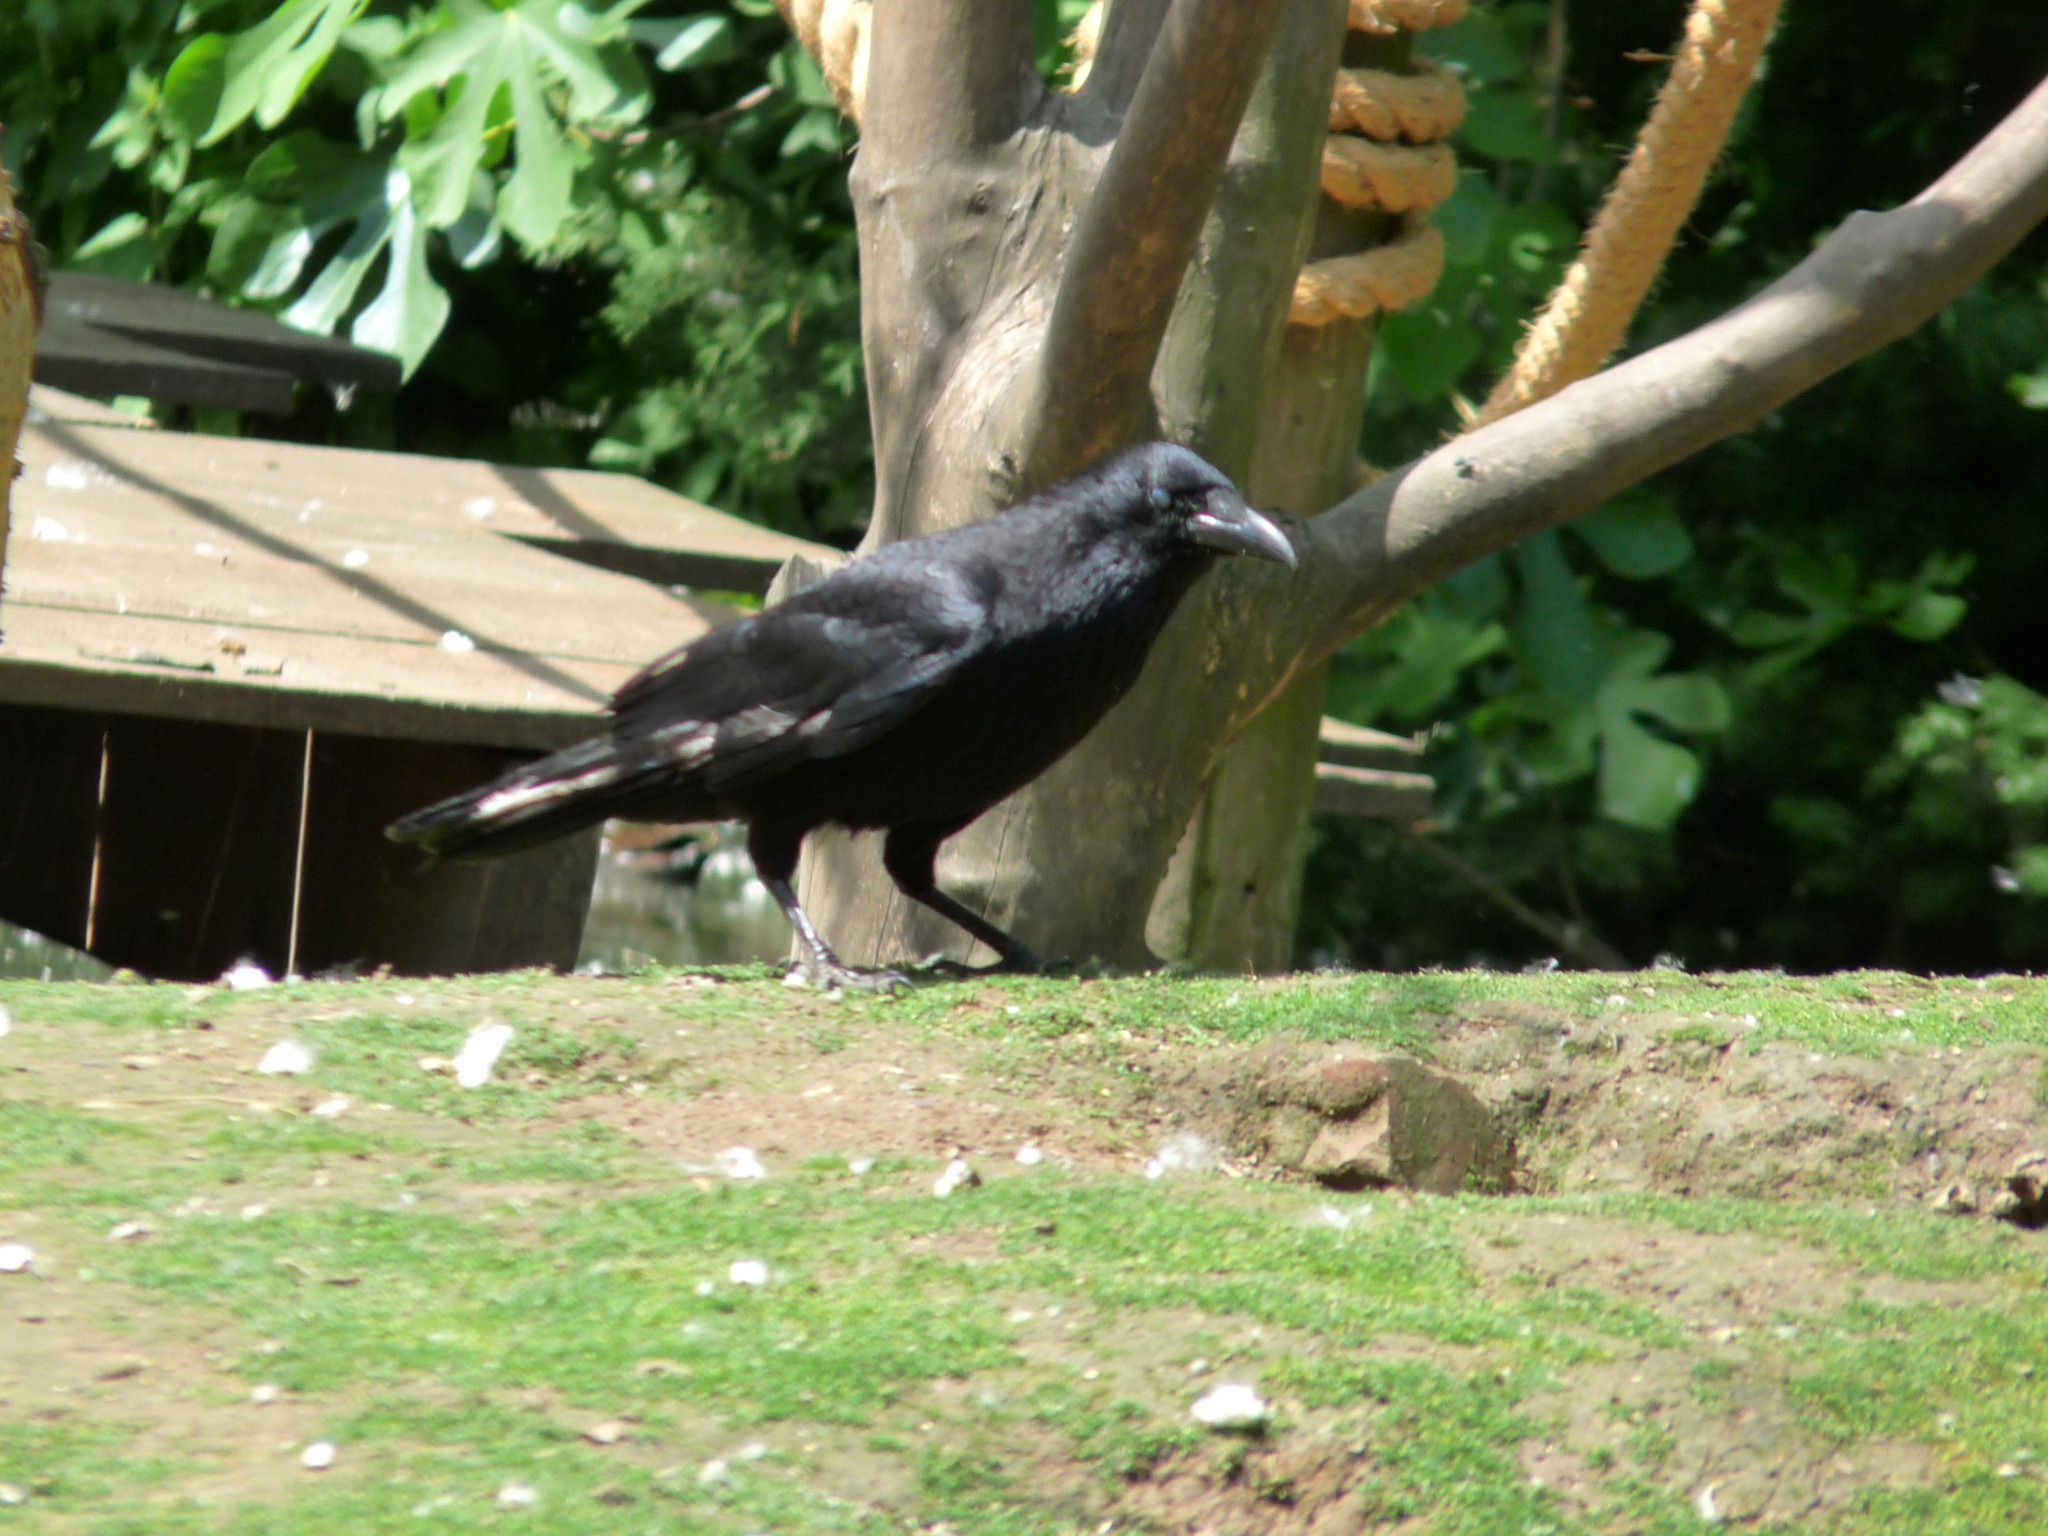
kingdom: Animalia
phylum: Chordata
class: Aves
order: Passeriformes
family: Corvidae
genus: Corvus
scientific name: Corvus corone
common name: Carrion crow
